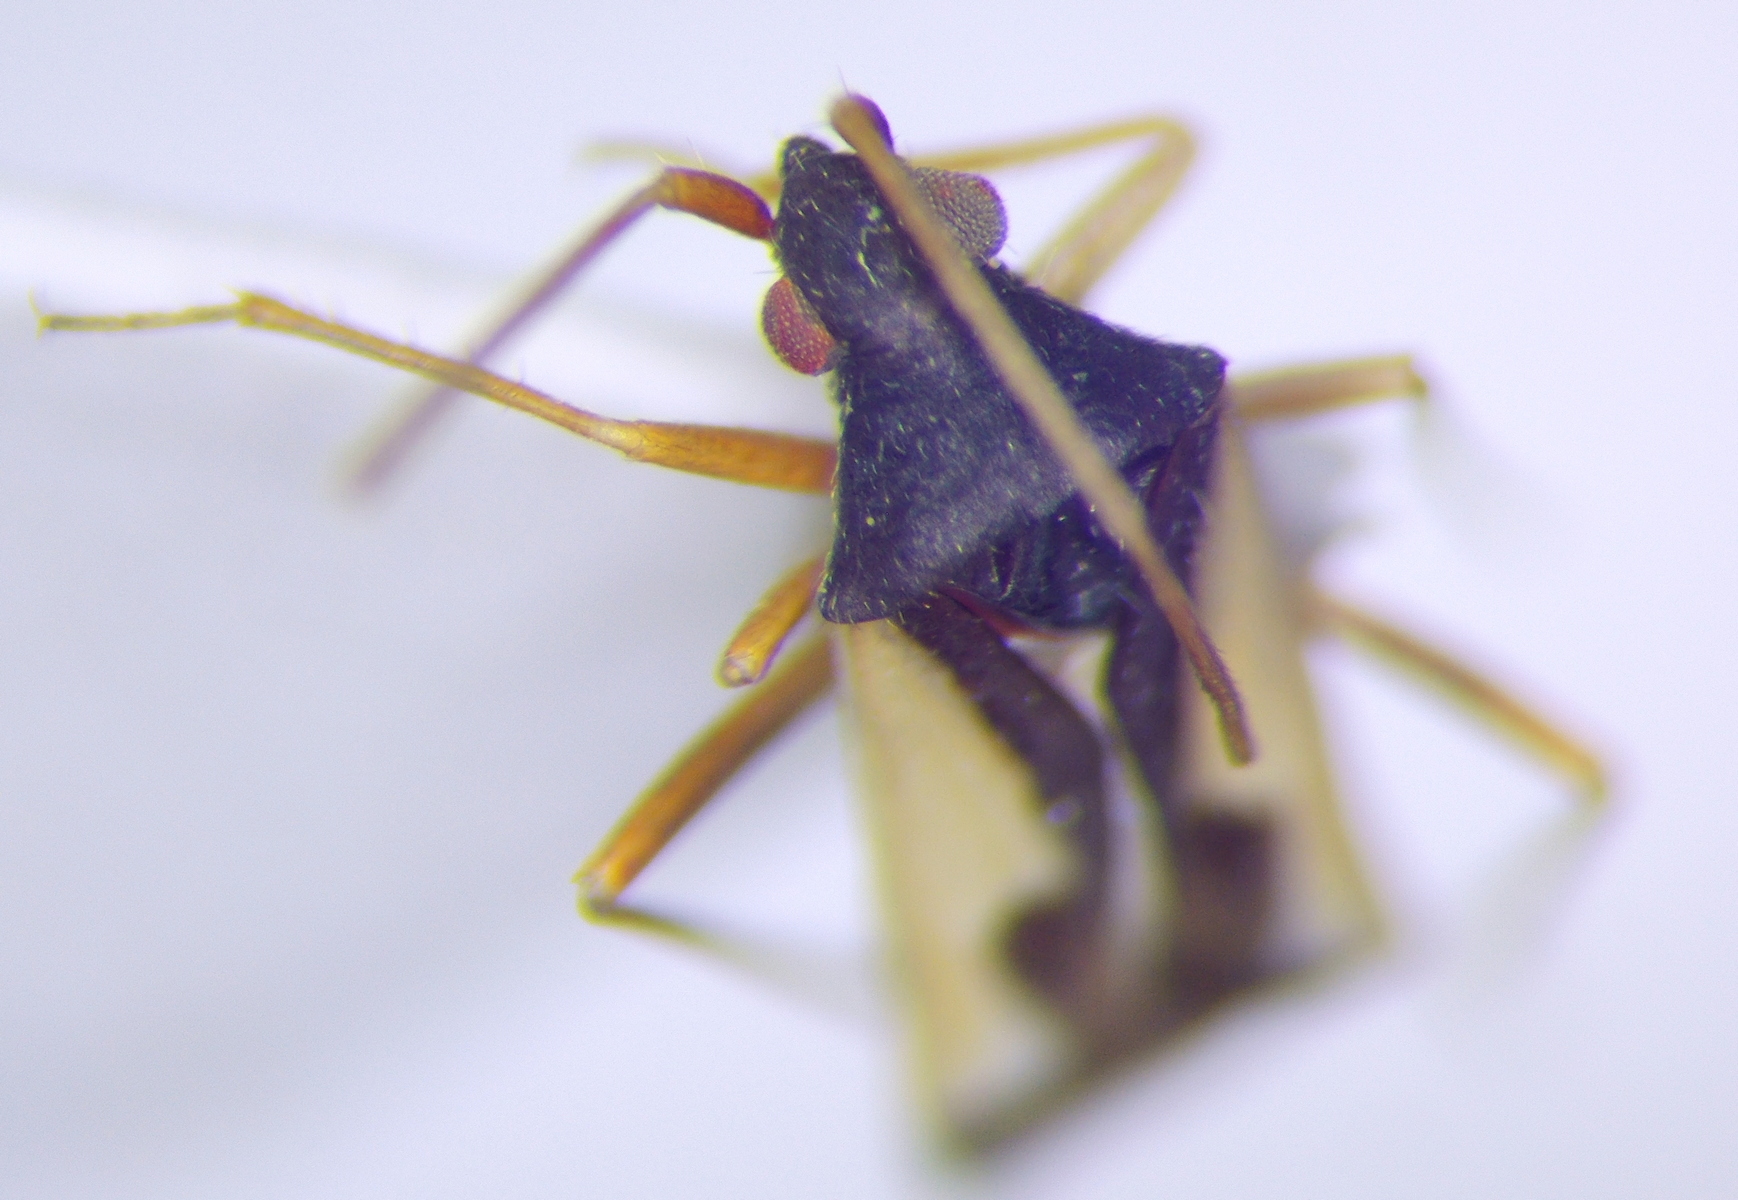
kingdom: Animalia
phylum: Arthropoda
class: Insecta
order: Hemiptera
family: Miridae
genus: Hallodapus
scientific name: Hallodapus suturalis
